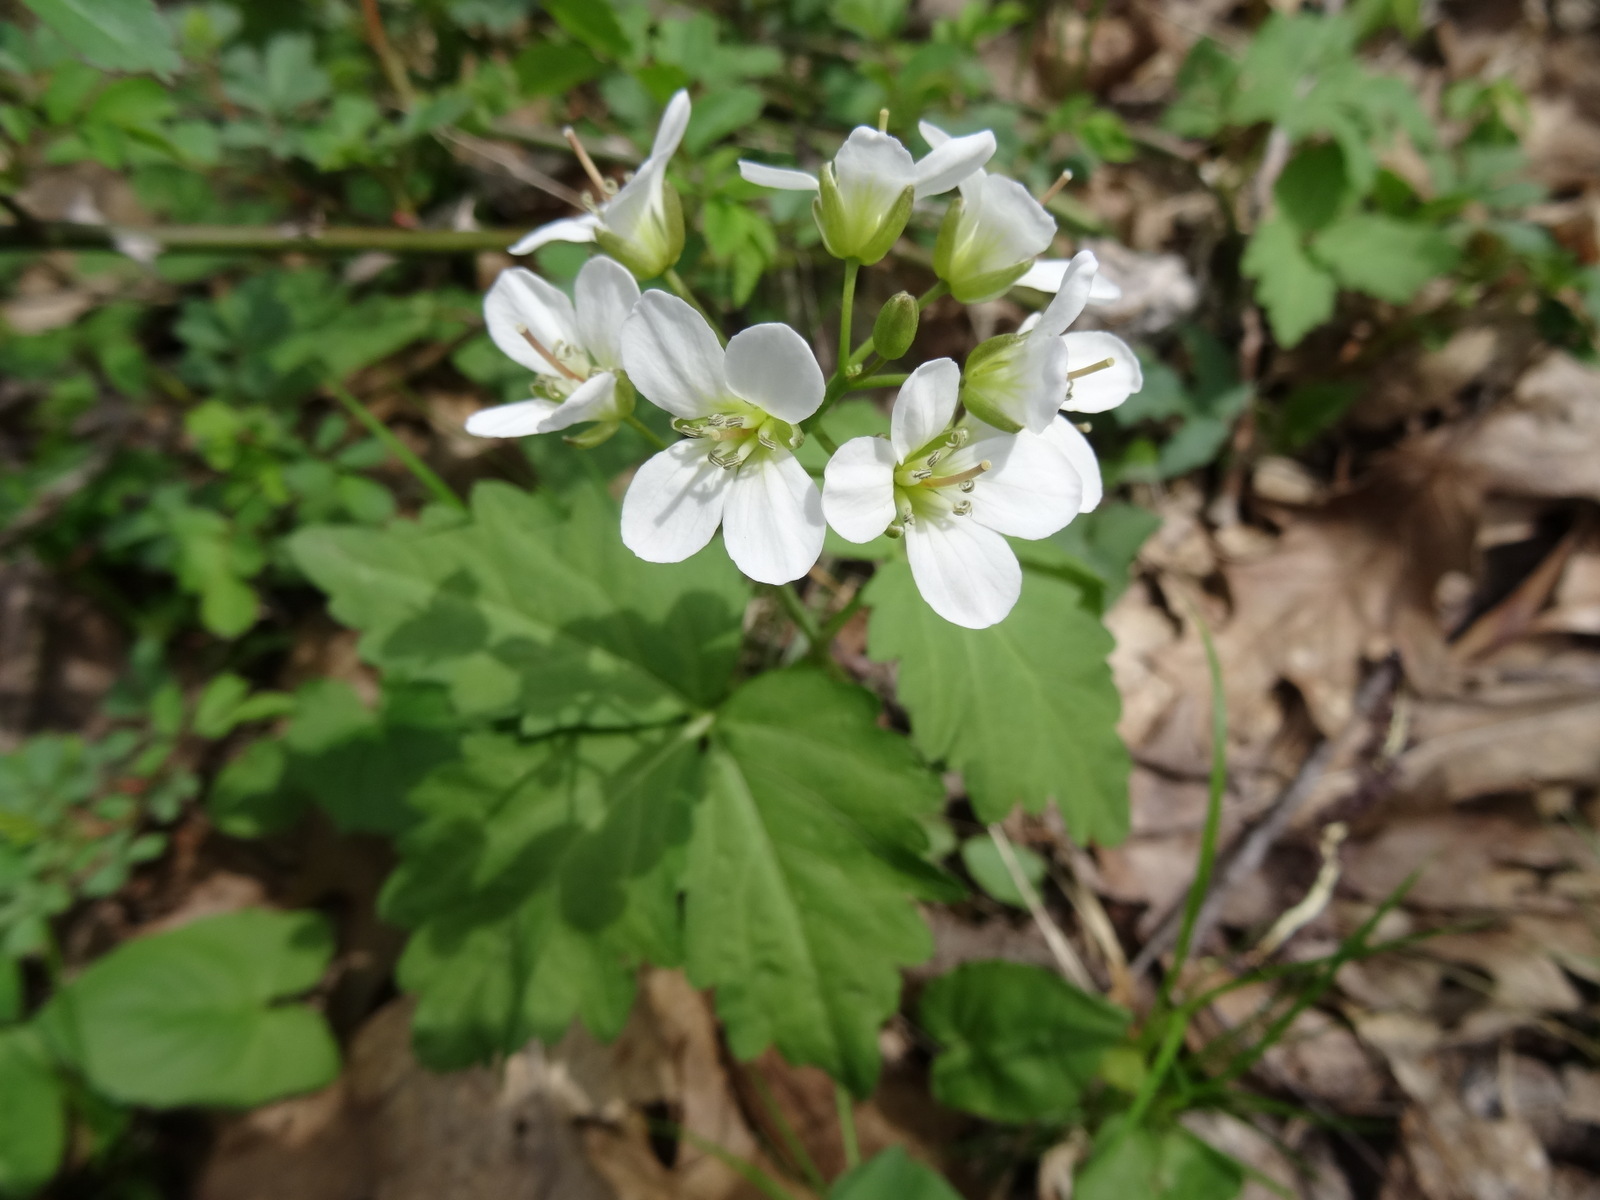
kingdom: Plantae
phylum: Tracheophyta
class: Magnoliopsida
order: Brassicales
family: Brassicaceae
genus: Cardamine
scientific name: Cardamine diphylla
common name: Broad-leaved toothwort
